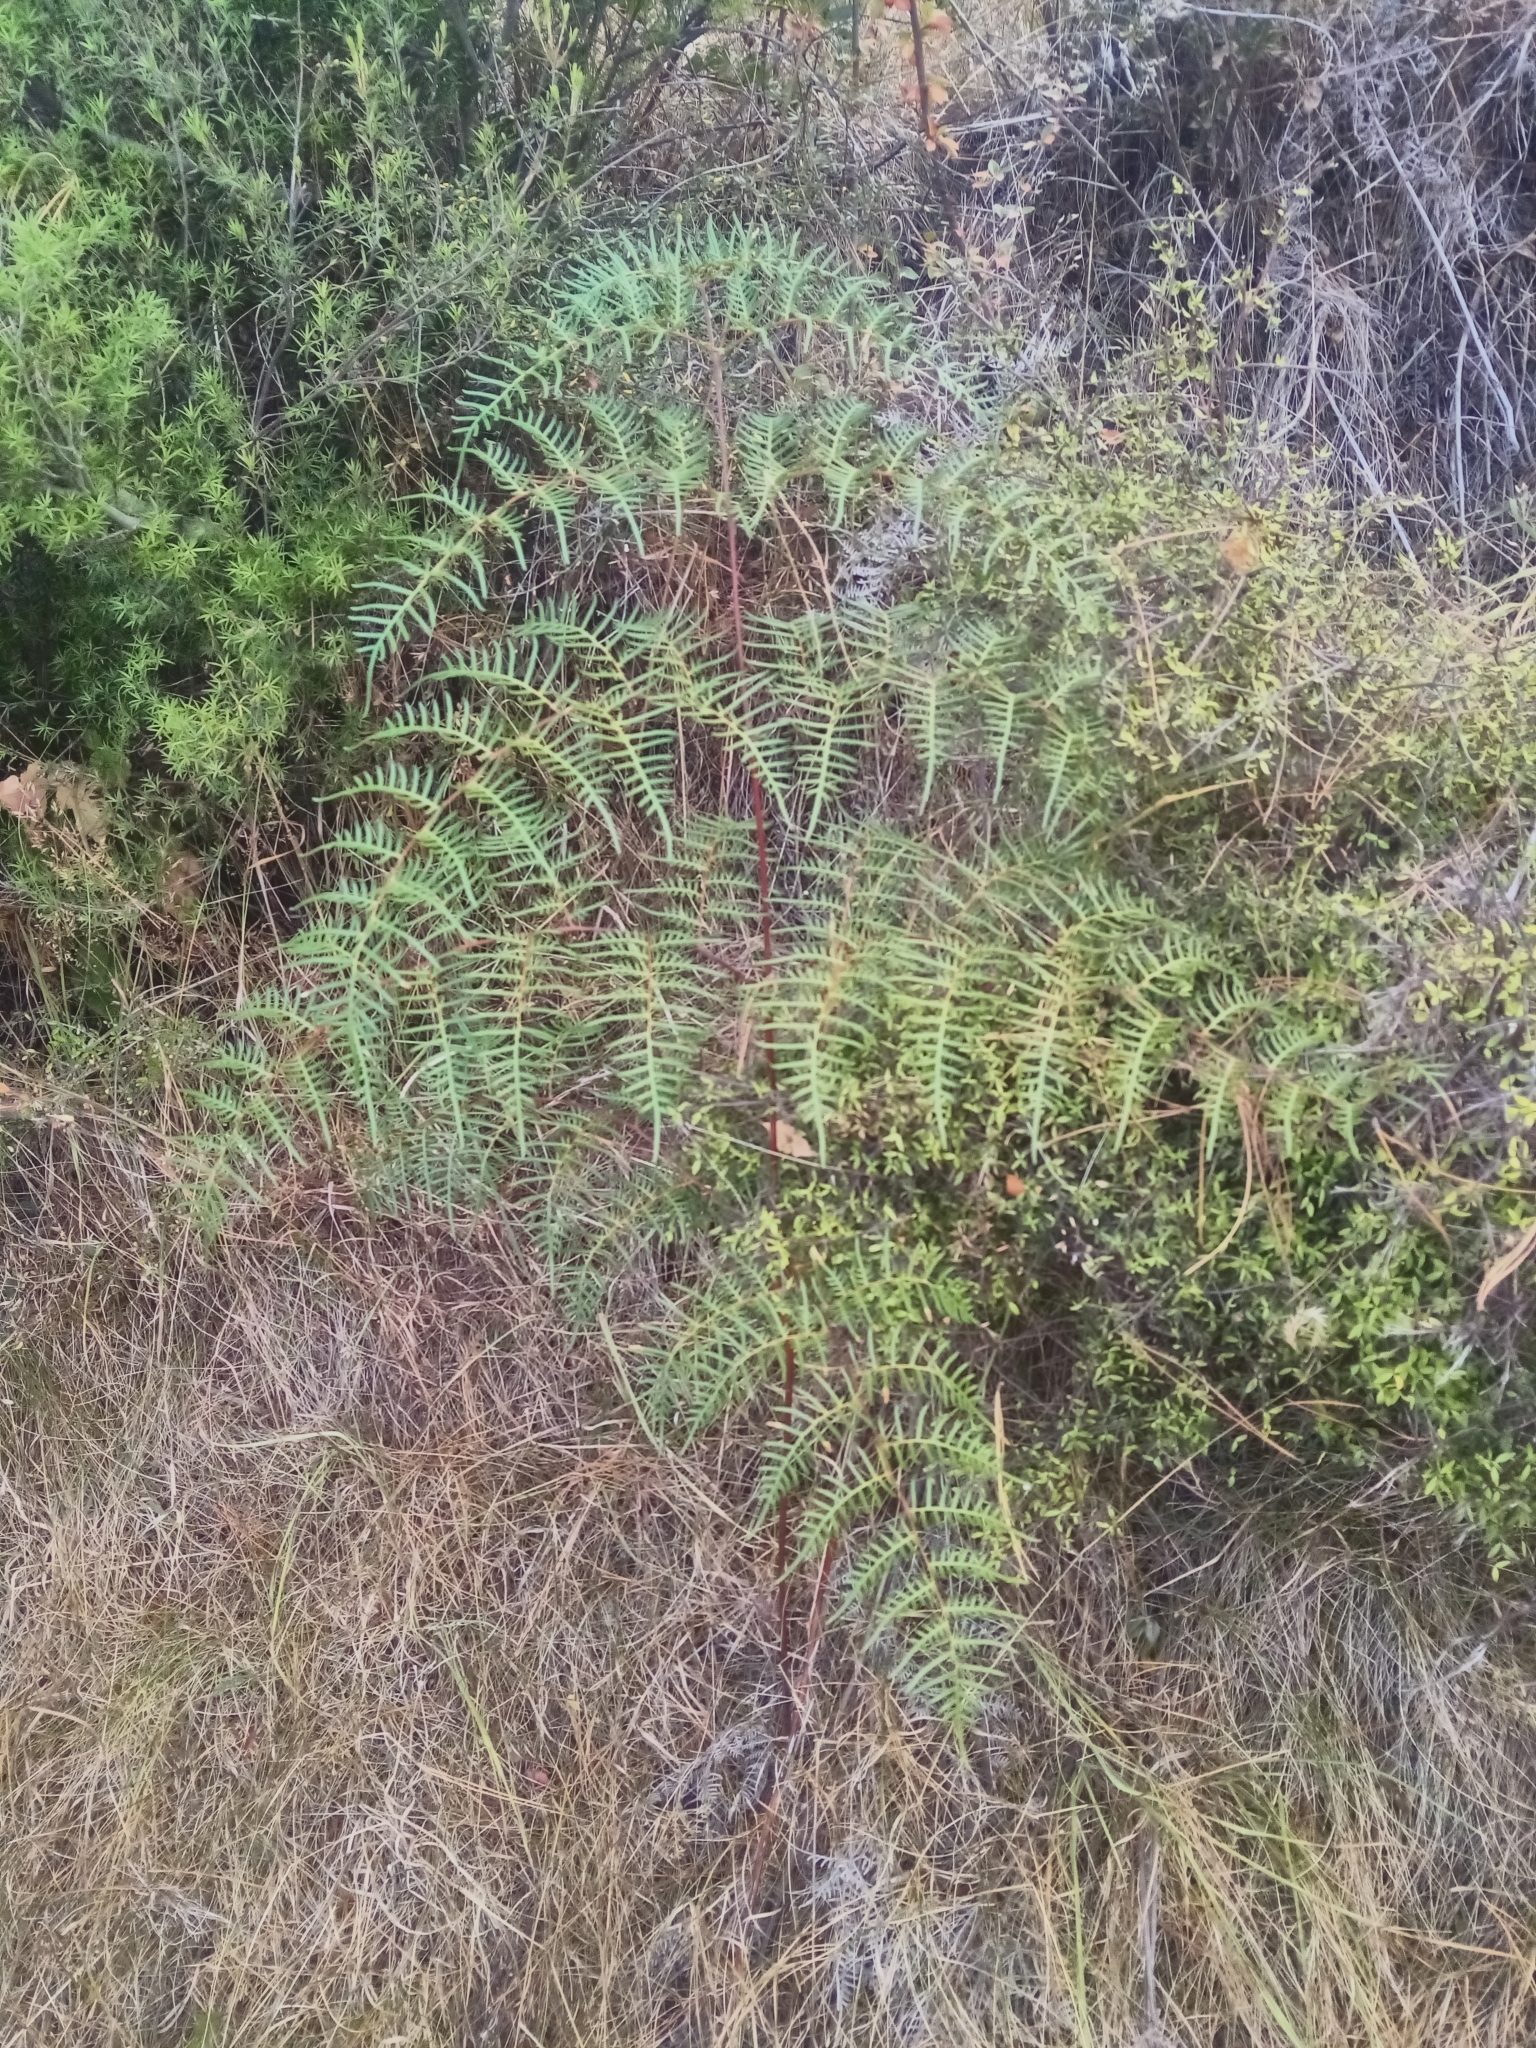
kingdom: Plantae
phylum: Tracheophyta
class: Polypodiopsida
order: Polypodiales
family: Dennstaedtiaceae
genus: Pteridium
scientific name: Pteridium esculentum
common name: Bracken fern
